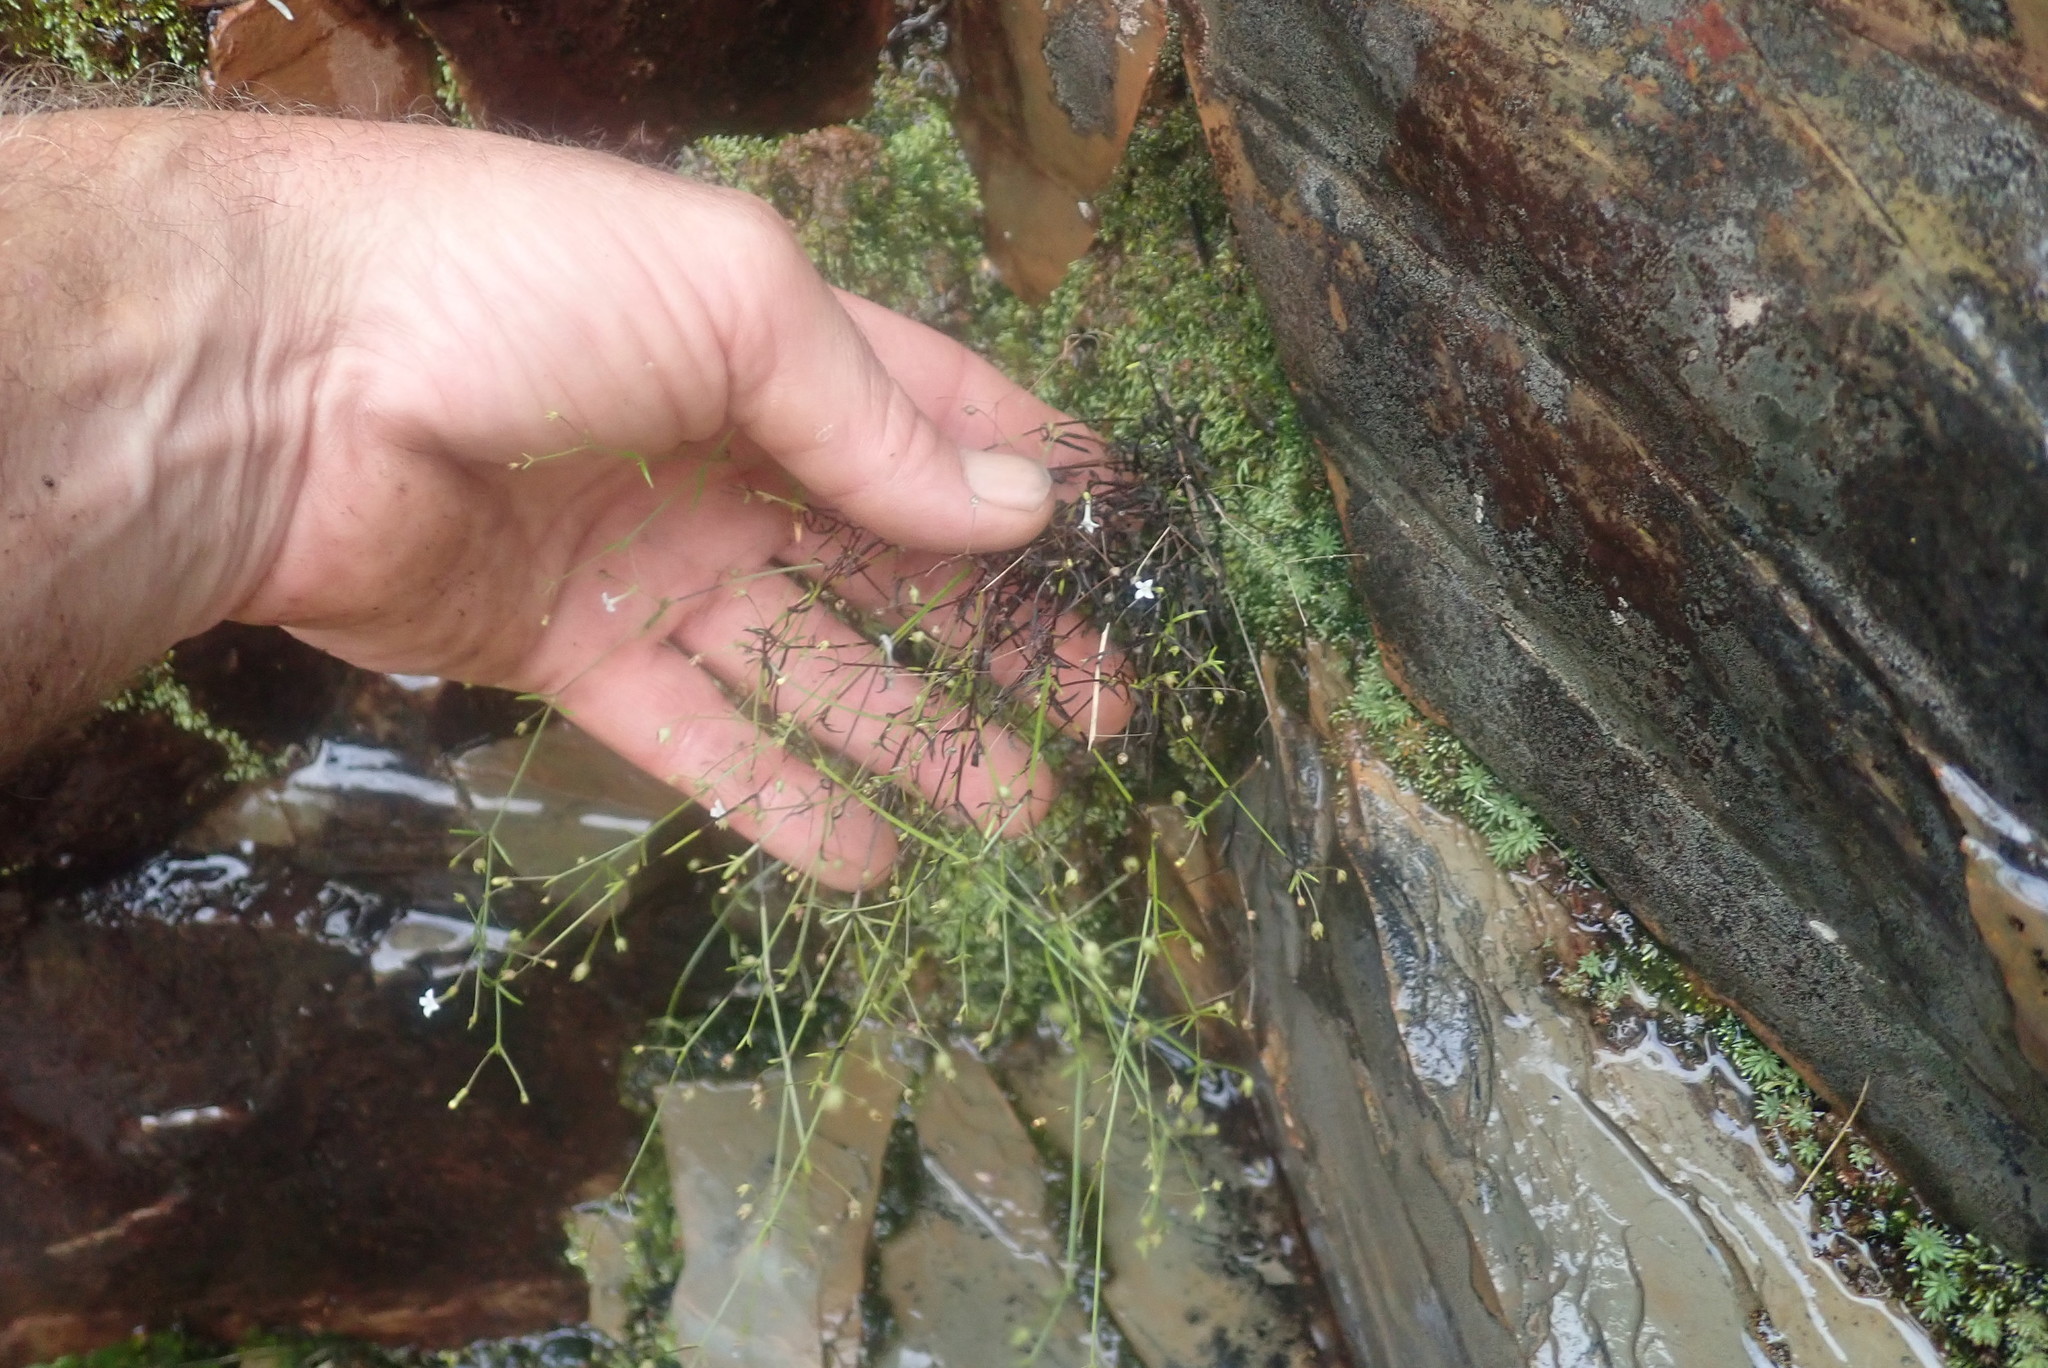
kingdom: Plantae
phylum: Tracheophyta
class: Magnoliopsida
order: Gentianales
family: Rubiaceae
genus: Oldenlandia
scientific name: Oldenlandia herbacea
